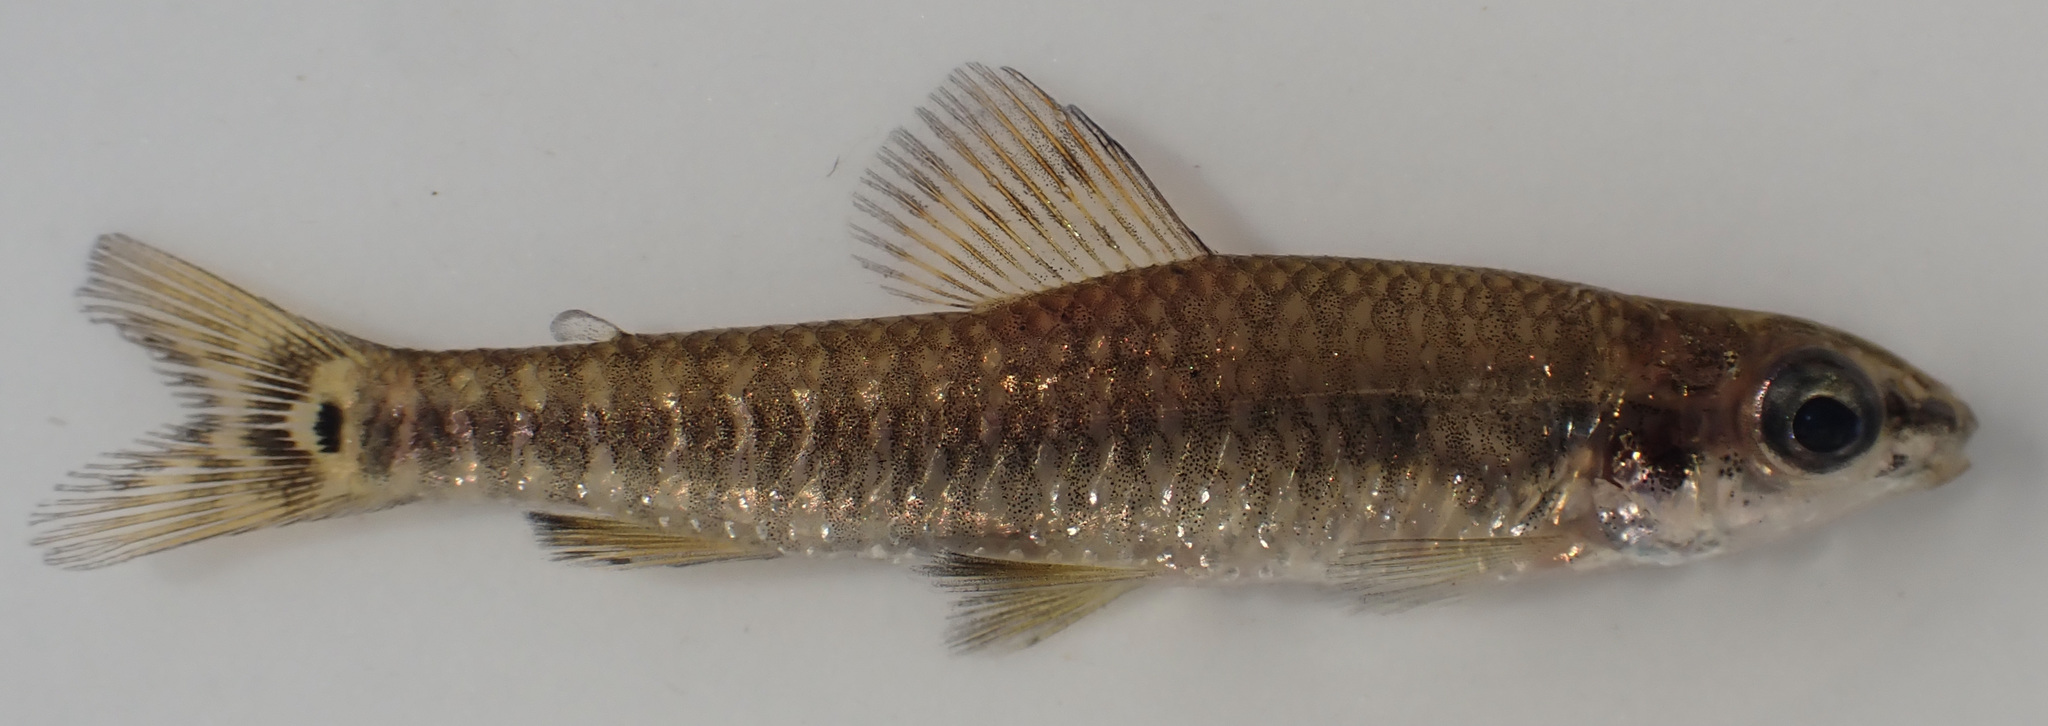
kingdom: Animalia
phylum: Chordata
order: Characiformes
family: Distichodontidae
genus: Nannocharax
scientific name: Nannocharax multifasciatus
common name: Multibar citharine
